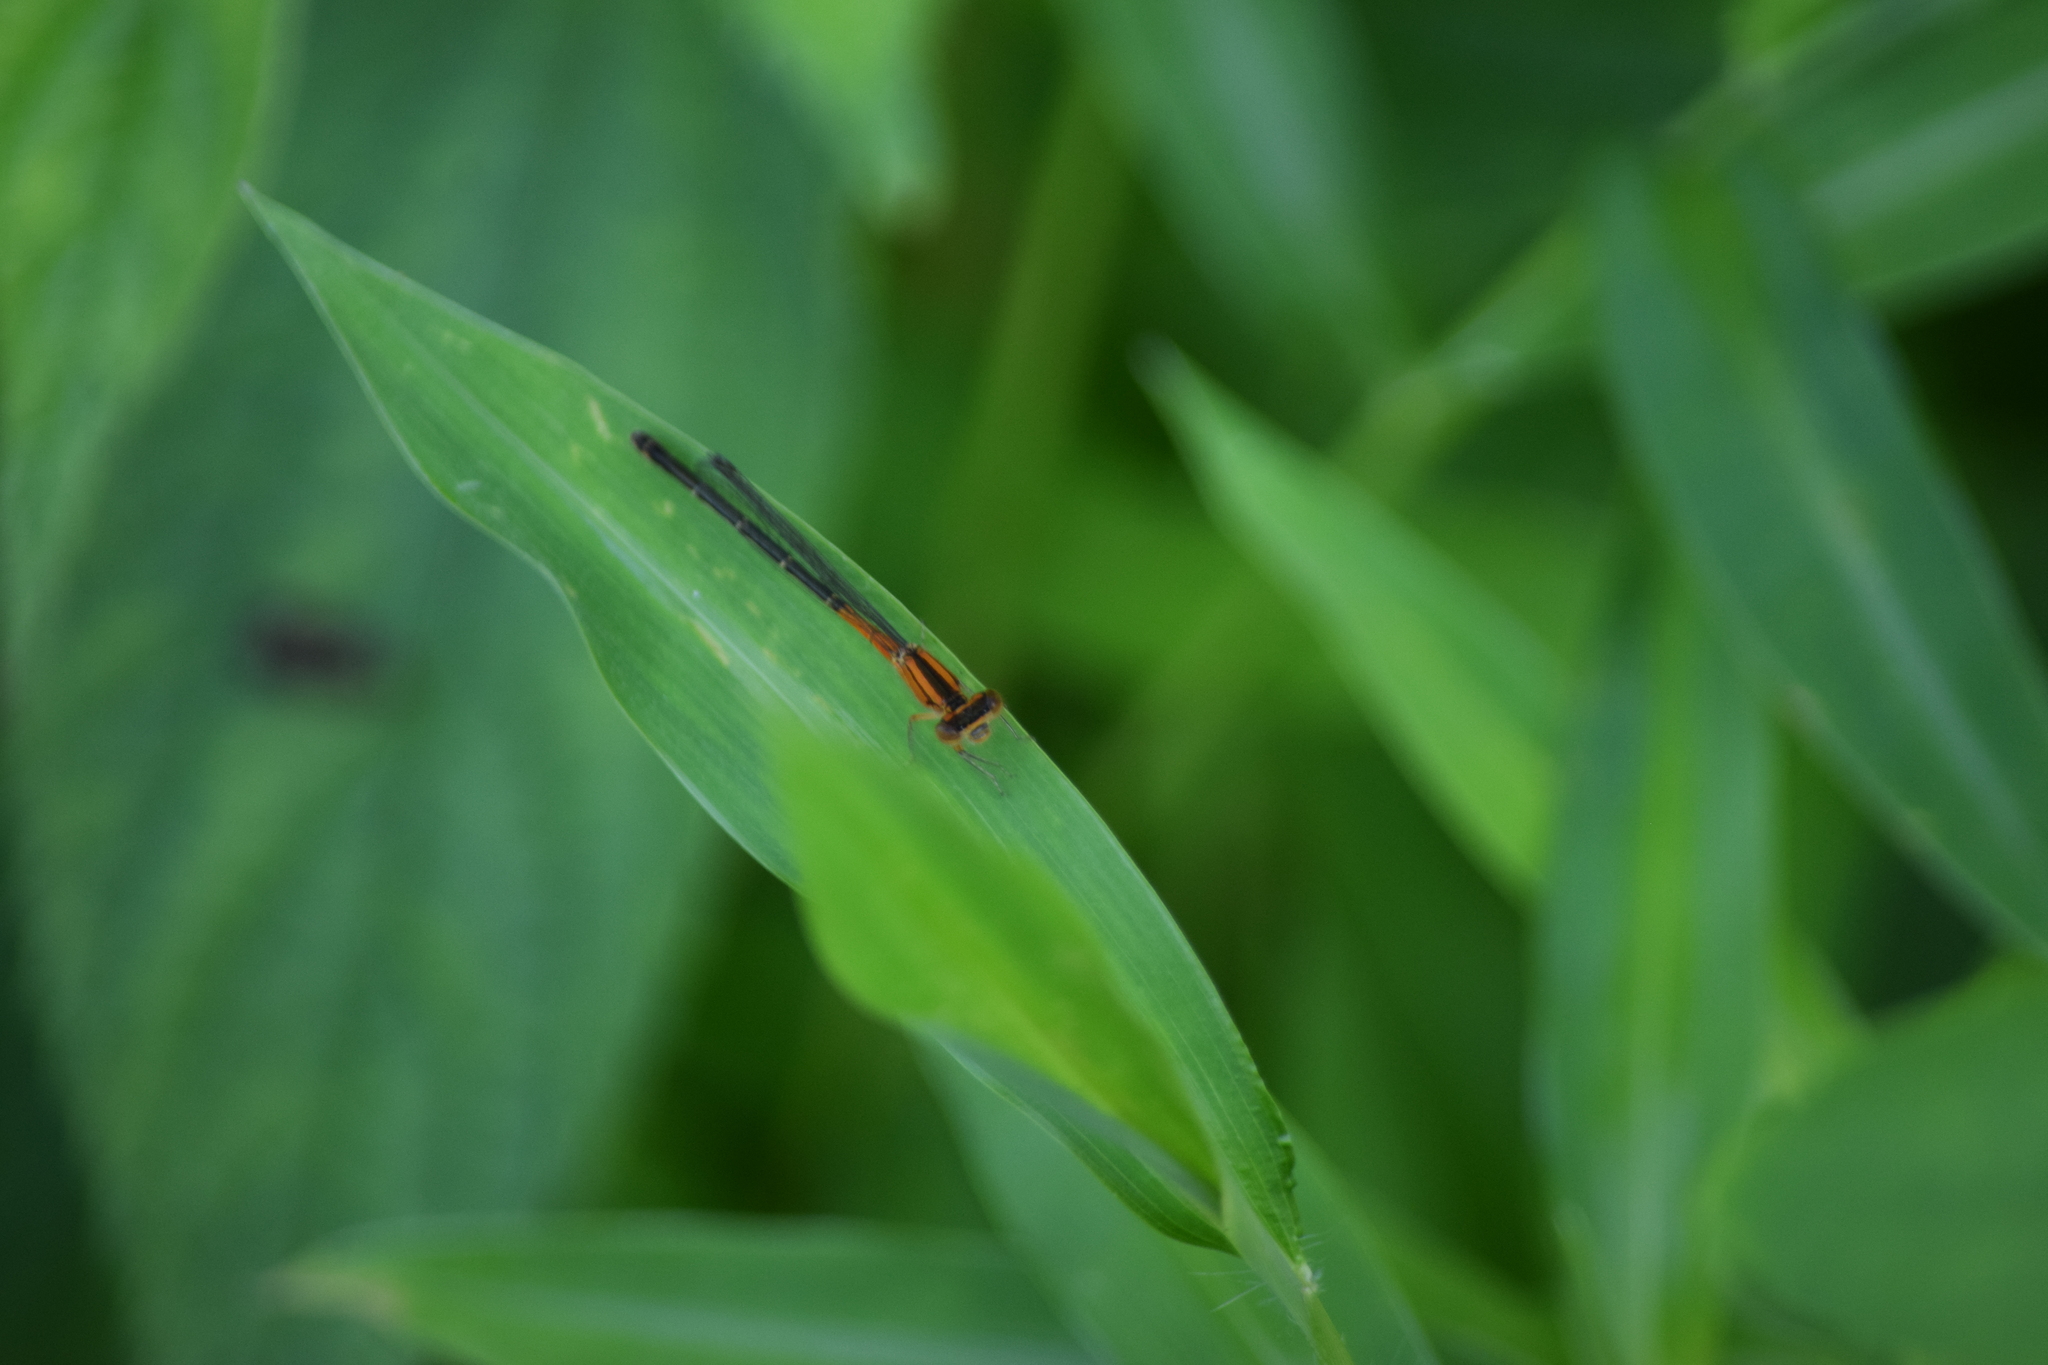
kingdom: Animalia
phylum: Arthropoda
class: Insecta
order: Odonata
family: Coenagrionidae
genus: Ischnura
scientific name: Ischnura verticalis
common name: Eastern forktail
